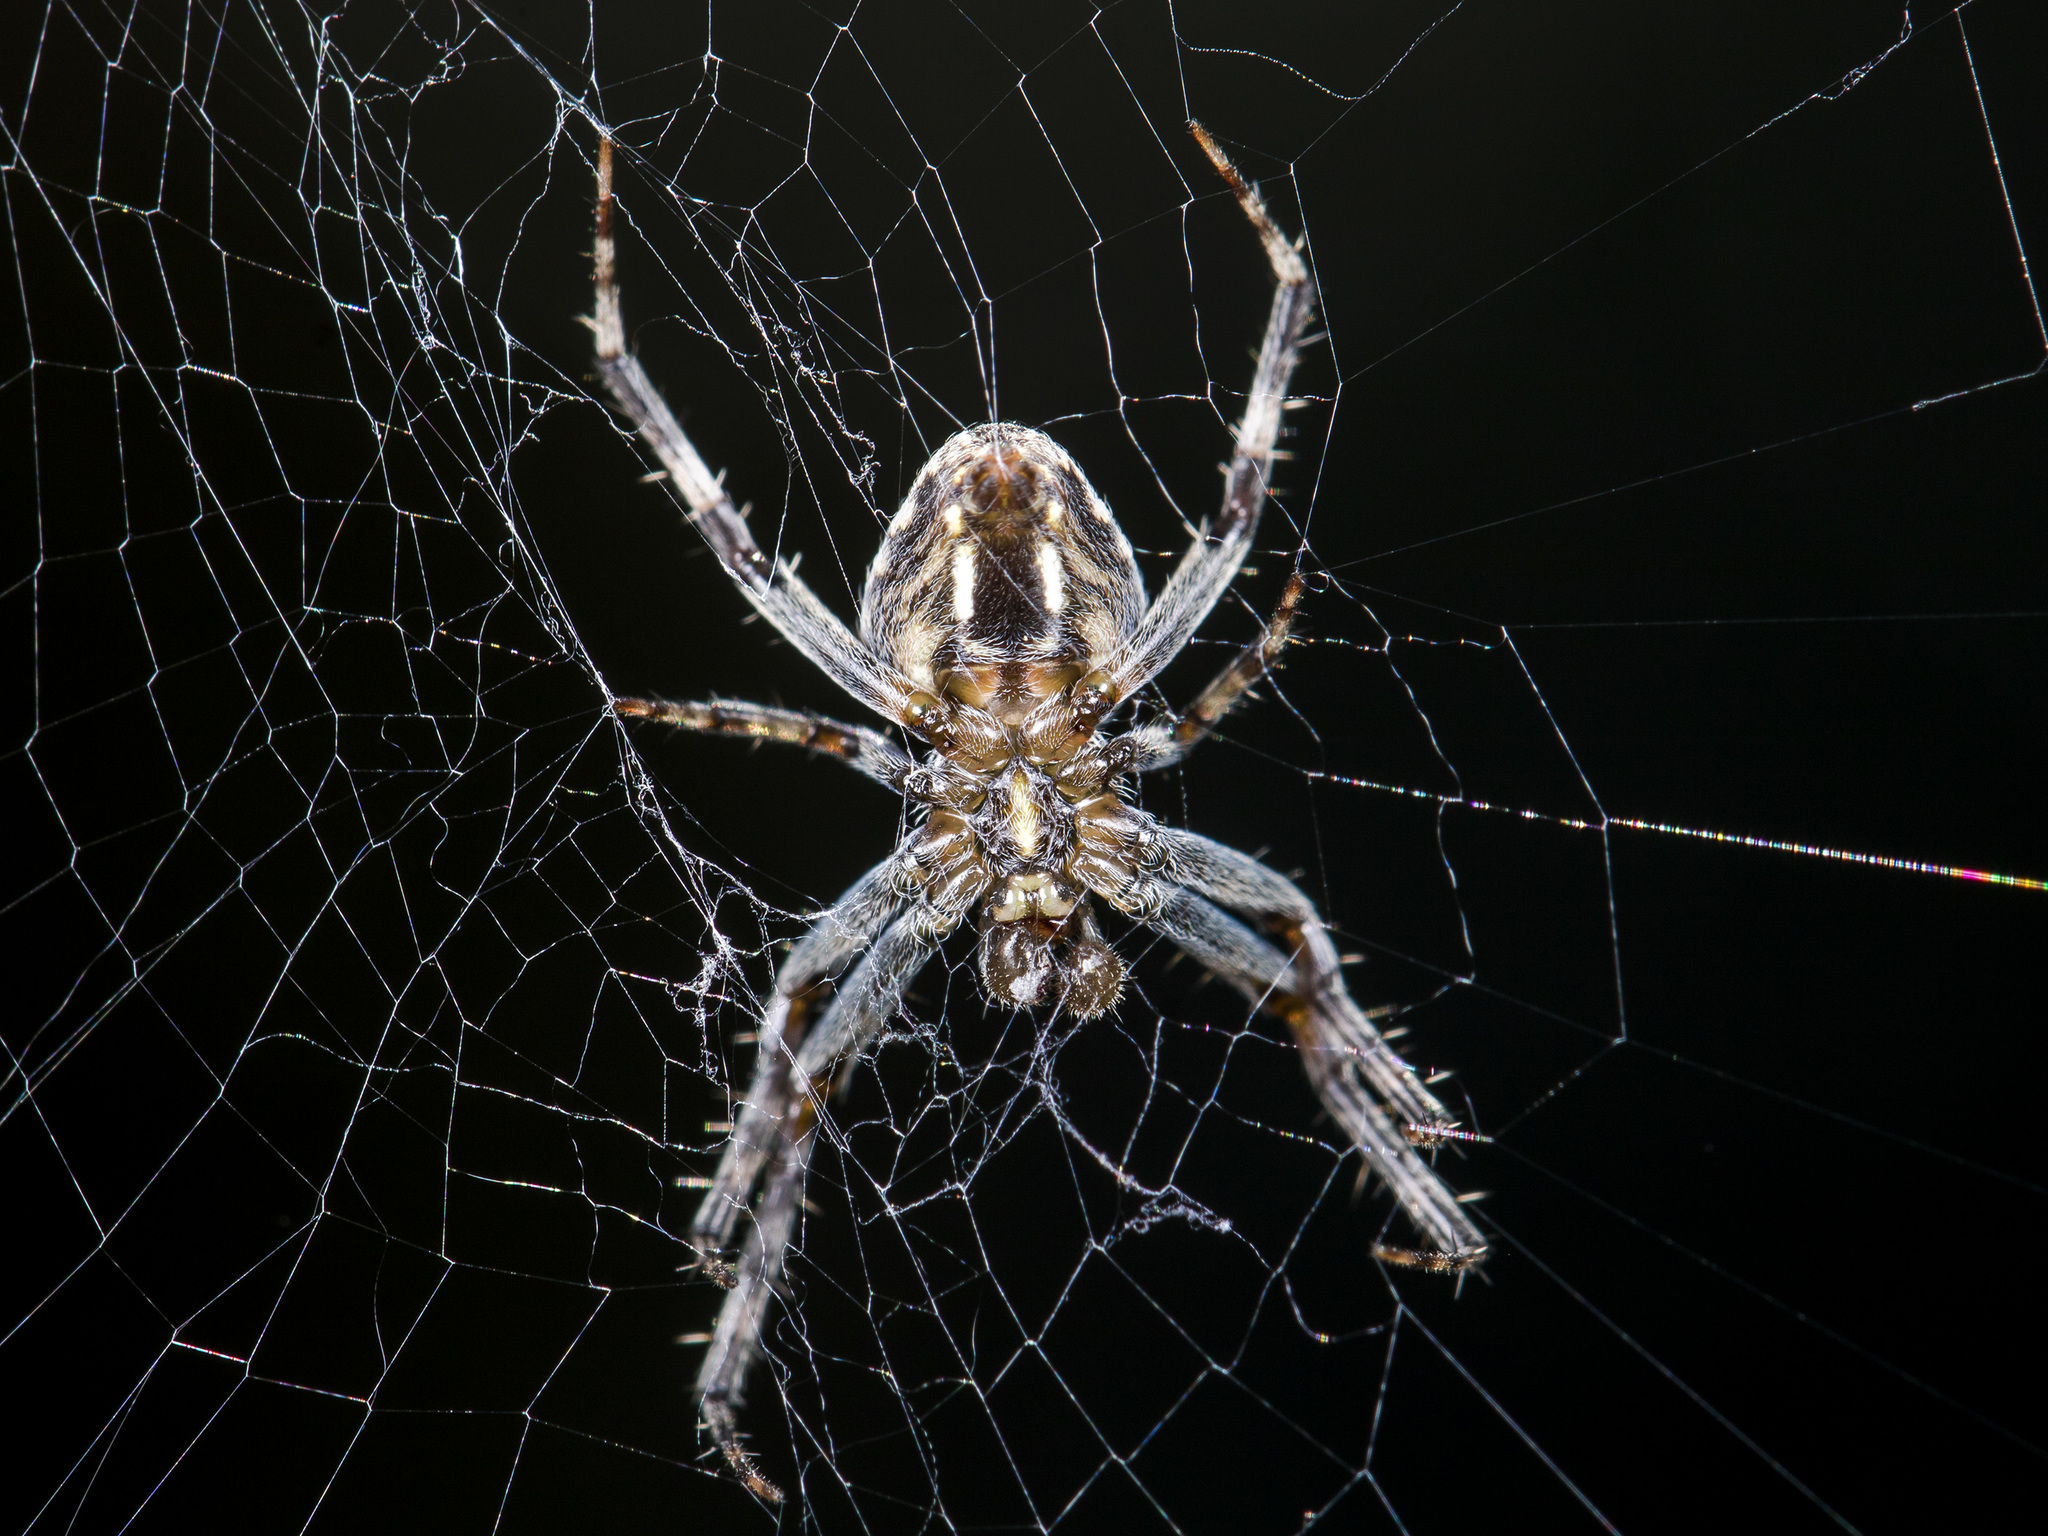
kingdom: Animalia
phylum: Arthropoda
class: Arachnida
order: Araneae
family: Araneidae
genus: Neoscona
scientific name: Neoscona spasskyi
